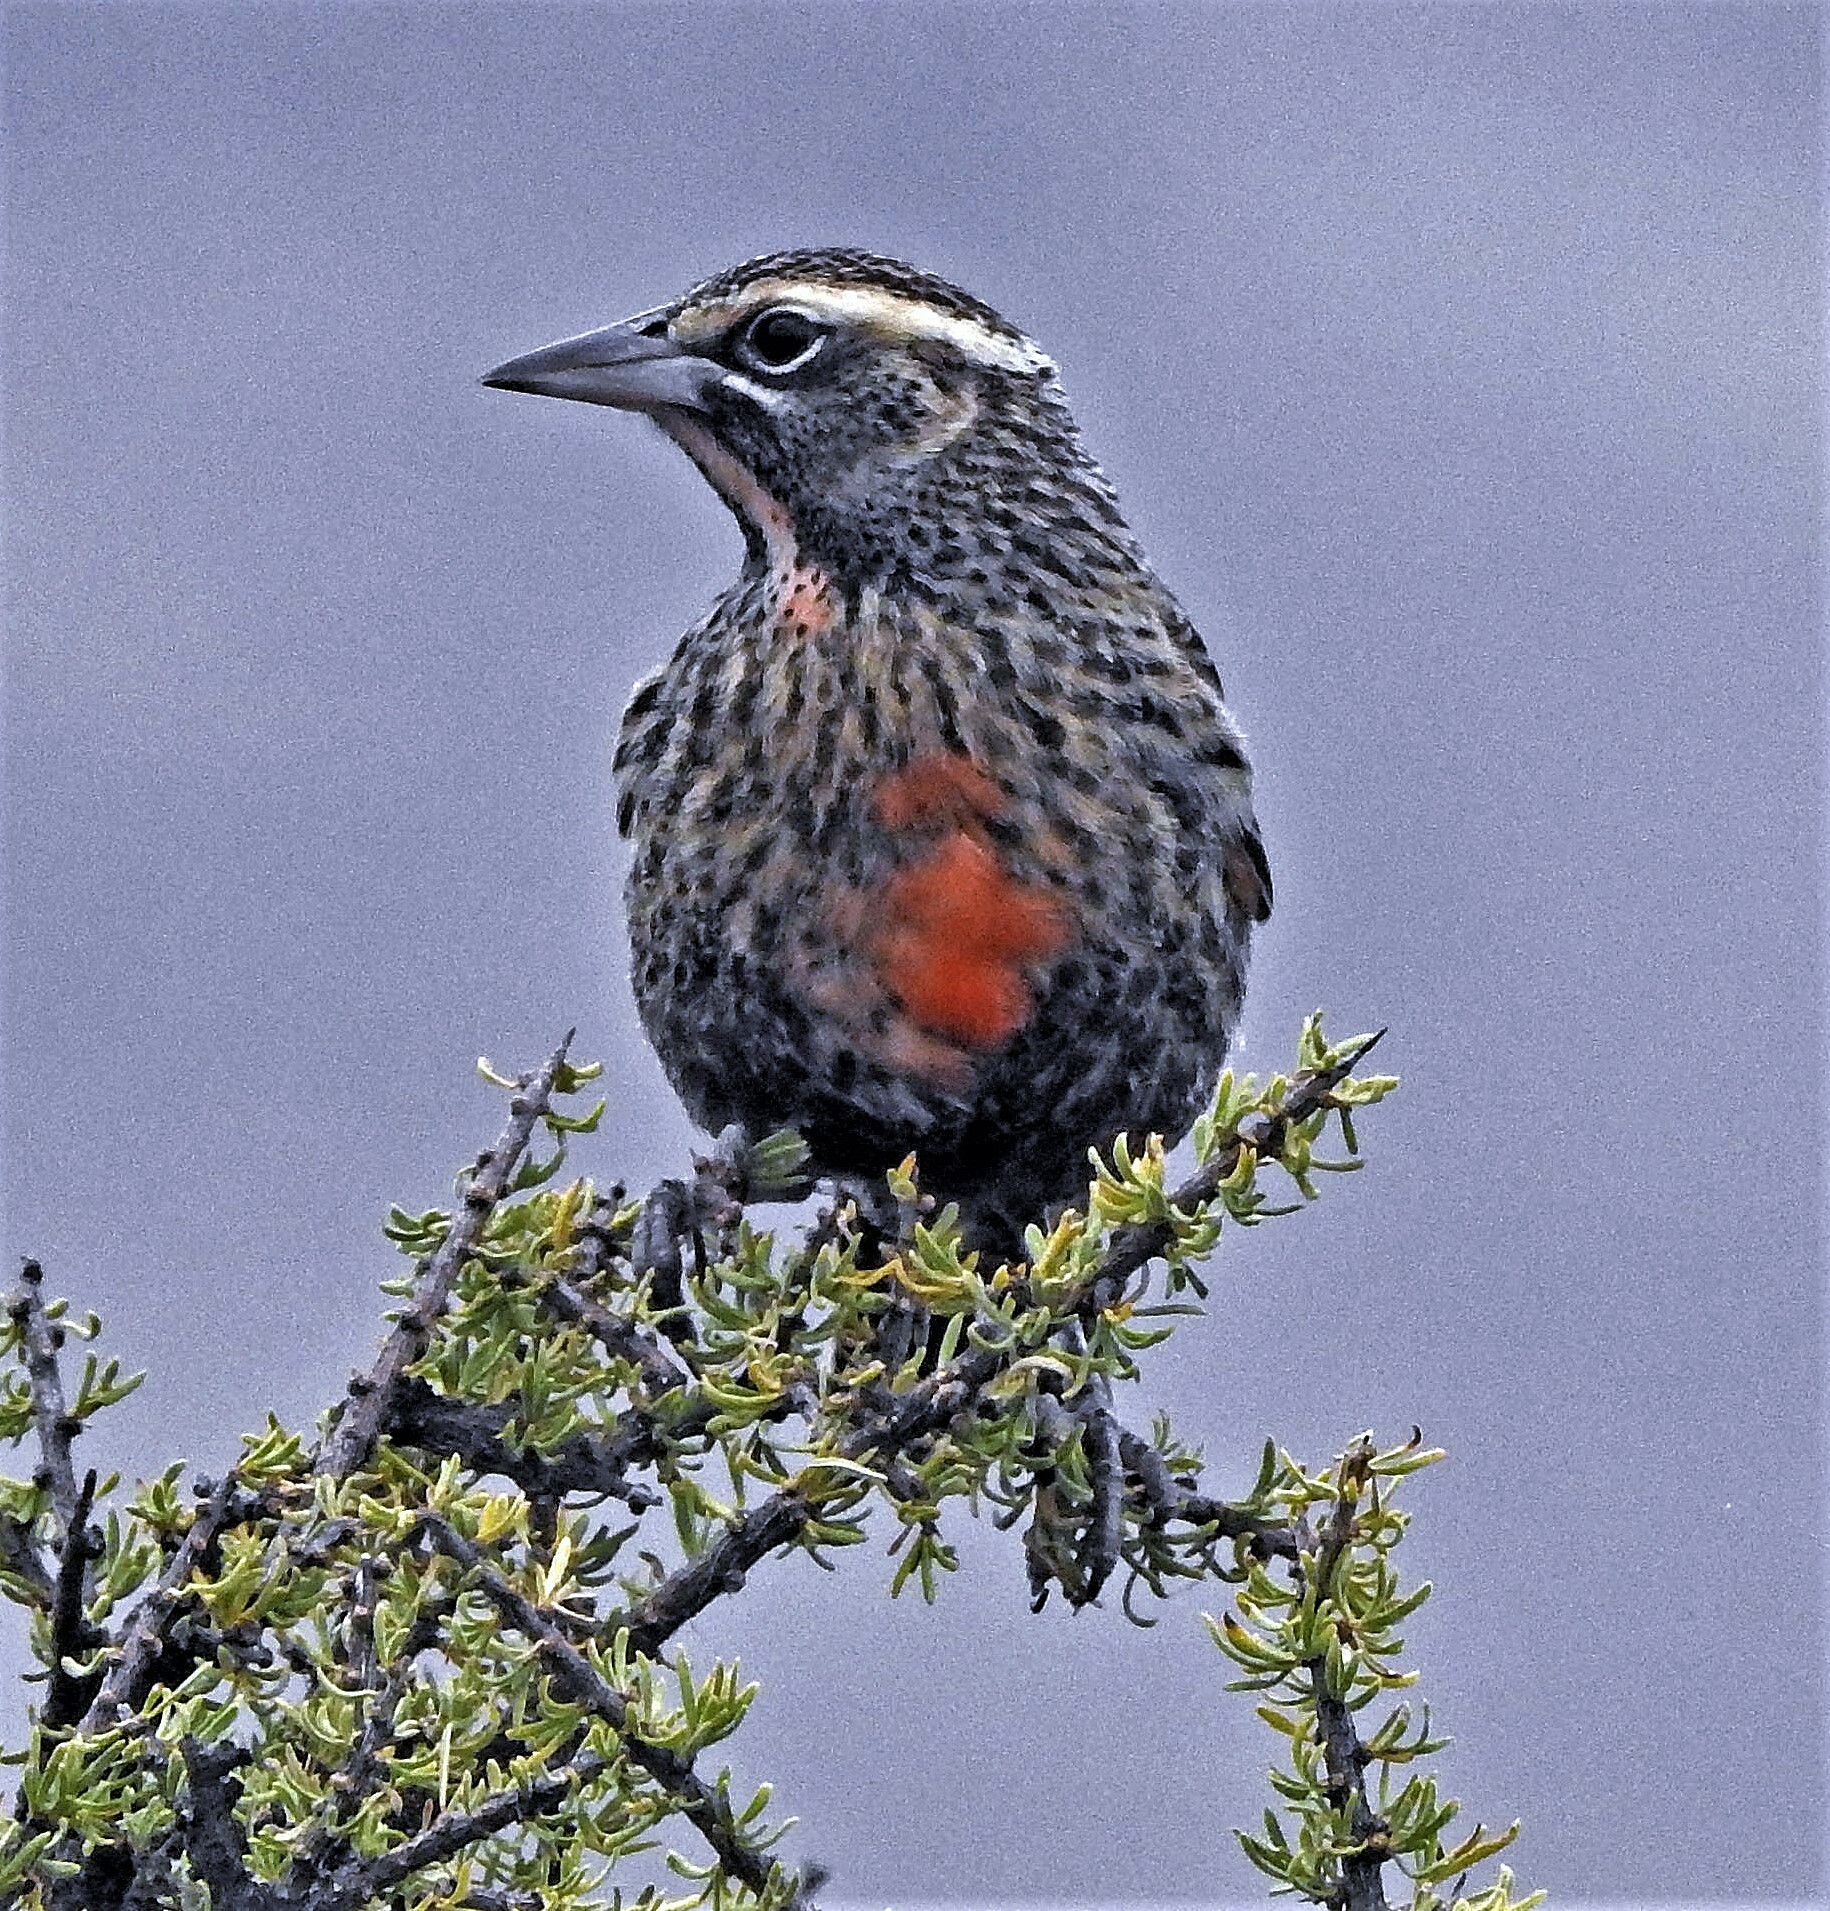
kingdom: Animalia
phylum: Chordata
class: Aves
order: Passeriformes
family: Icteridae
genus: Sturnella
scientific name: Sturnella loyca
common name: Long-tailed meadowlark
